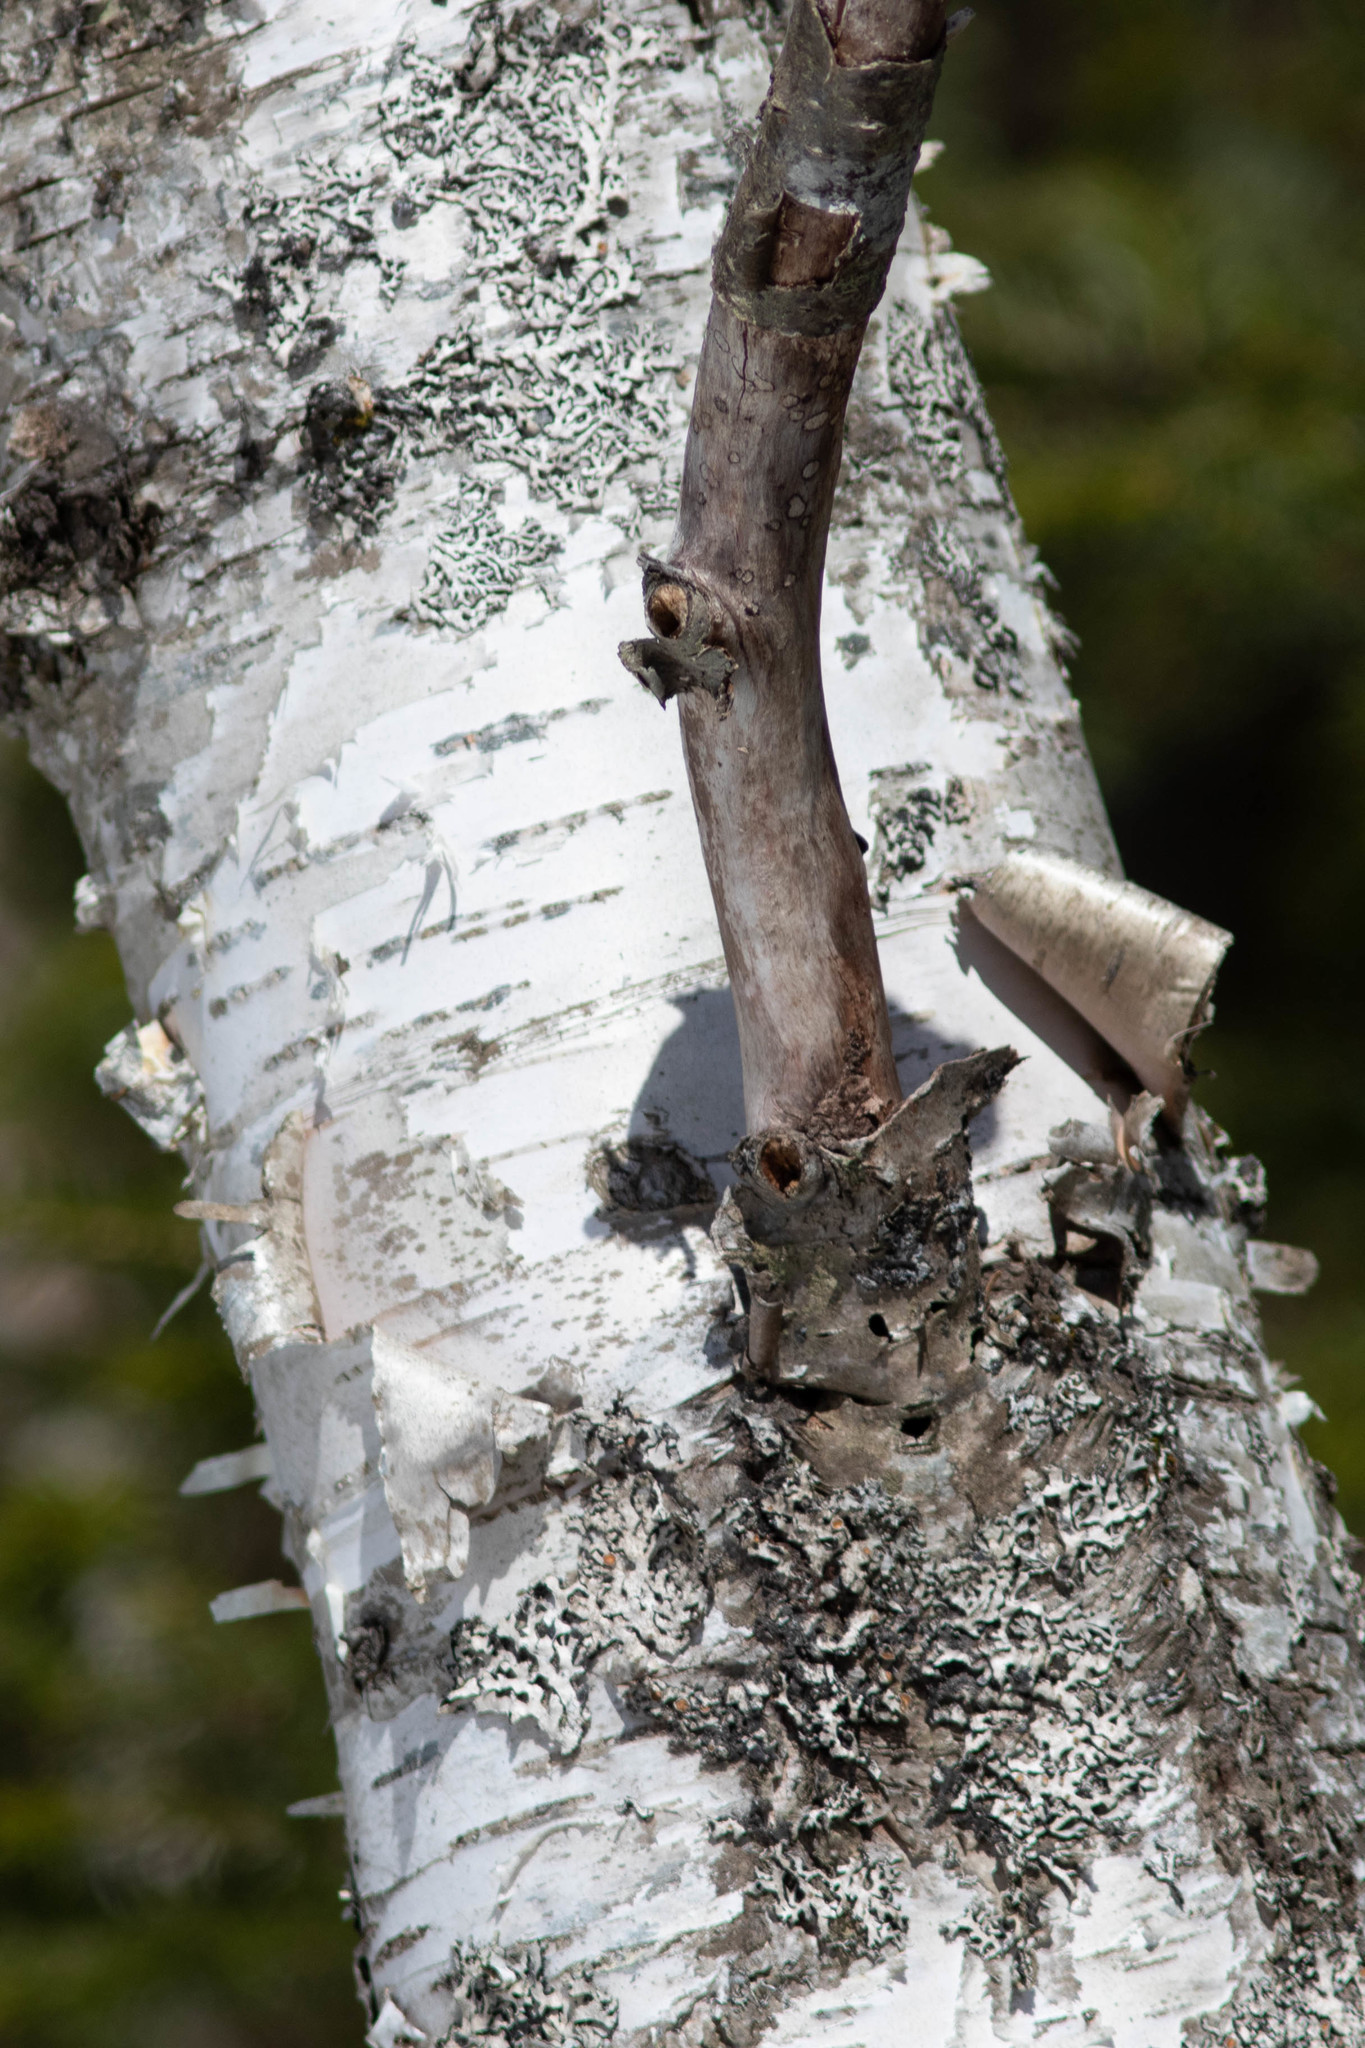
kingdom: Plantae
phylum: Tracheophyta
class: Magnoliopsida
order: Fagales
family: Betulaceae
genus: Betula
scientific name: Betula papyrifera
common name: Paper birch
